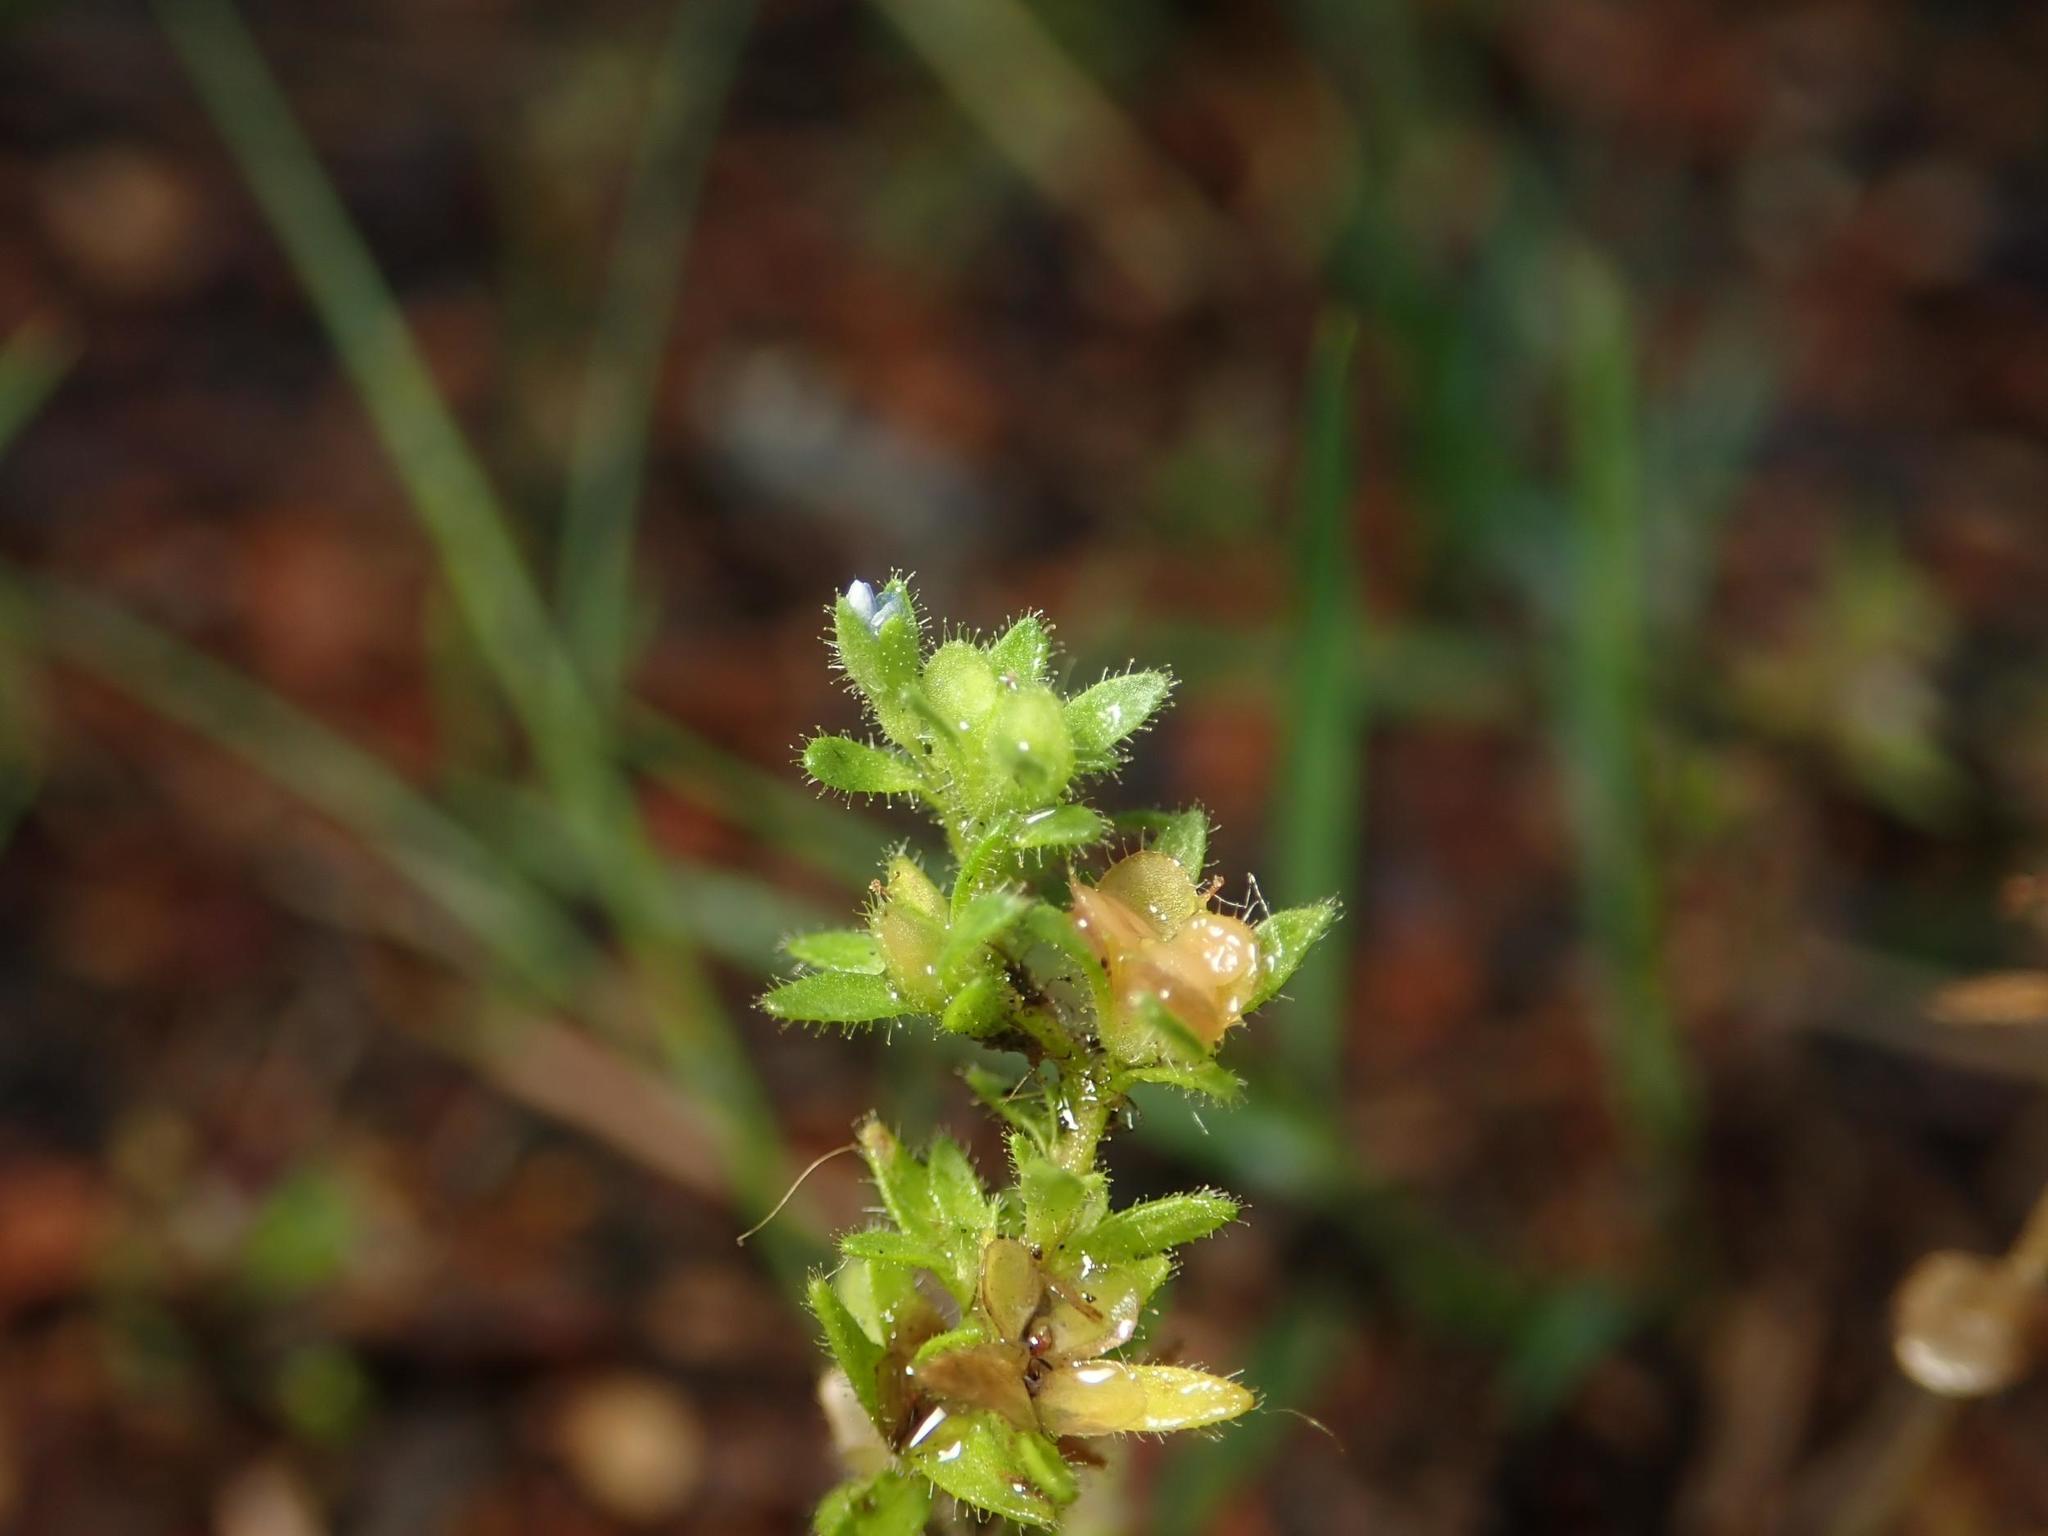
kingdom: Plantae
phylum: Tracheophyta
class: Magnoliopsida
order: Lamiales
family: Plantaginaceae
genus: Veronica
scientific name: Veronica arvensis
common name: Corn speedwell
